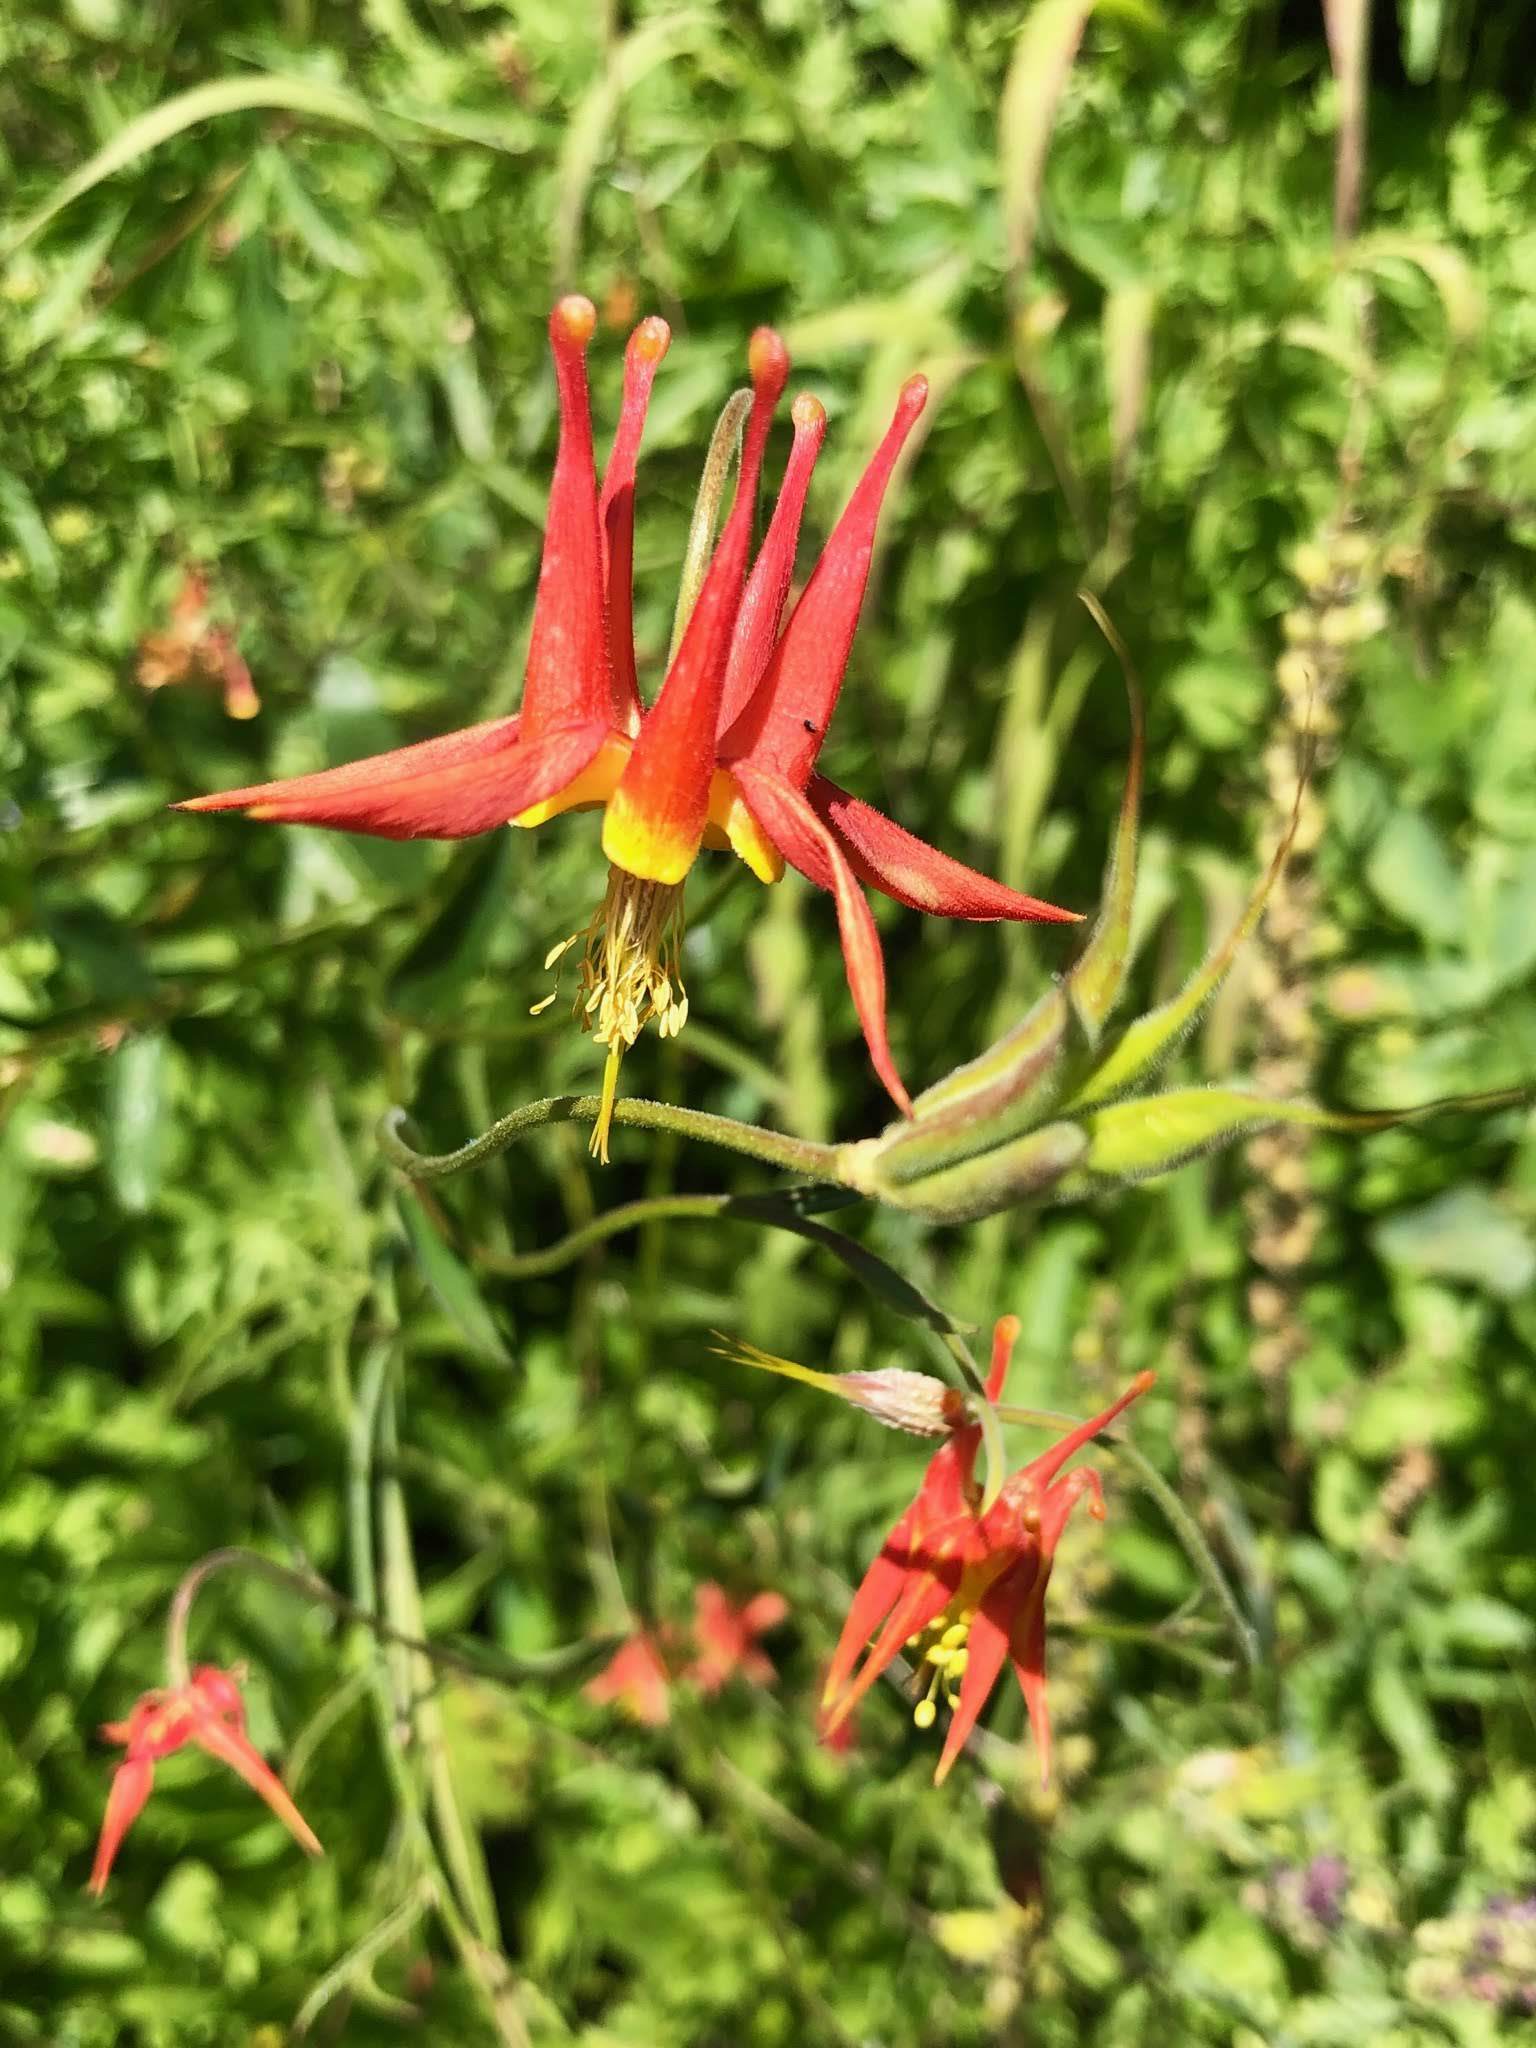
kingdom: Plantae
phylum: Tracheophyta
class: Magnoliopsida
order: Ranunculales
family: Ranunculaceae
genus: Aquilegia
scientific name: Aquilegia formosa
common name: Sitka columbine
